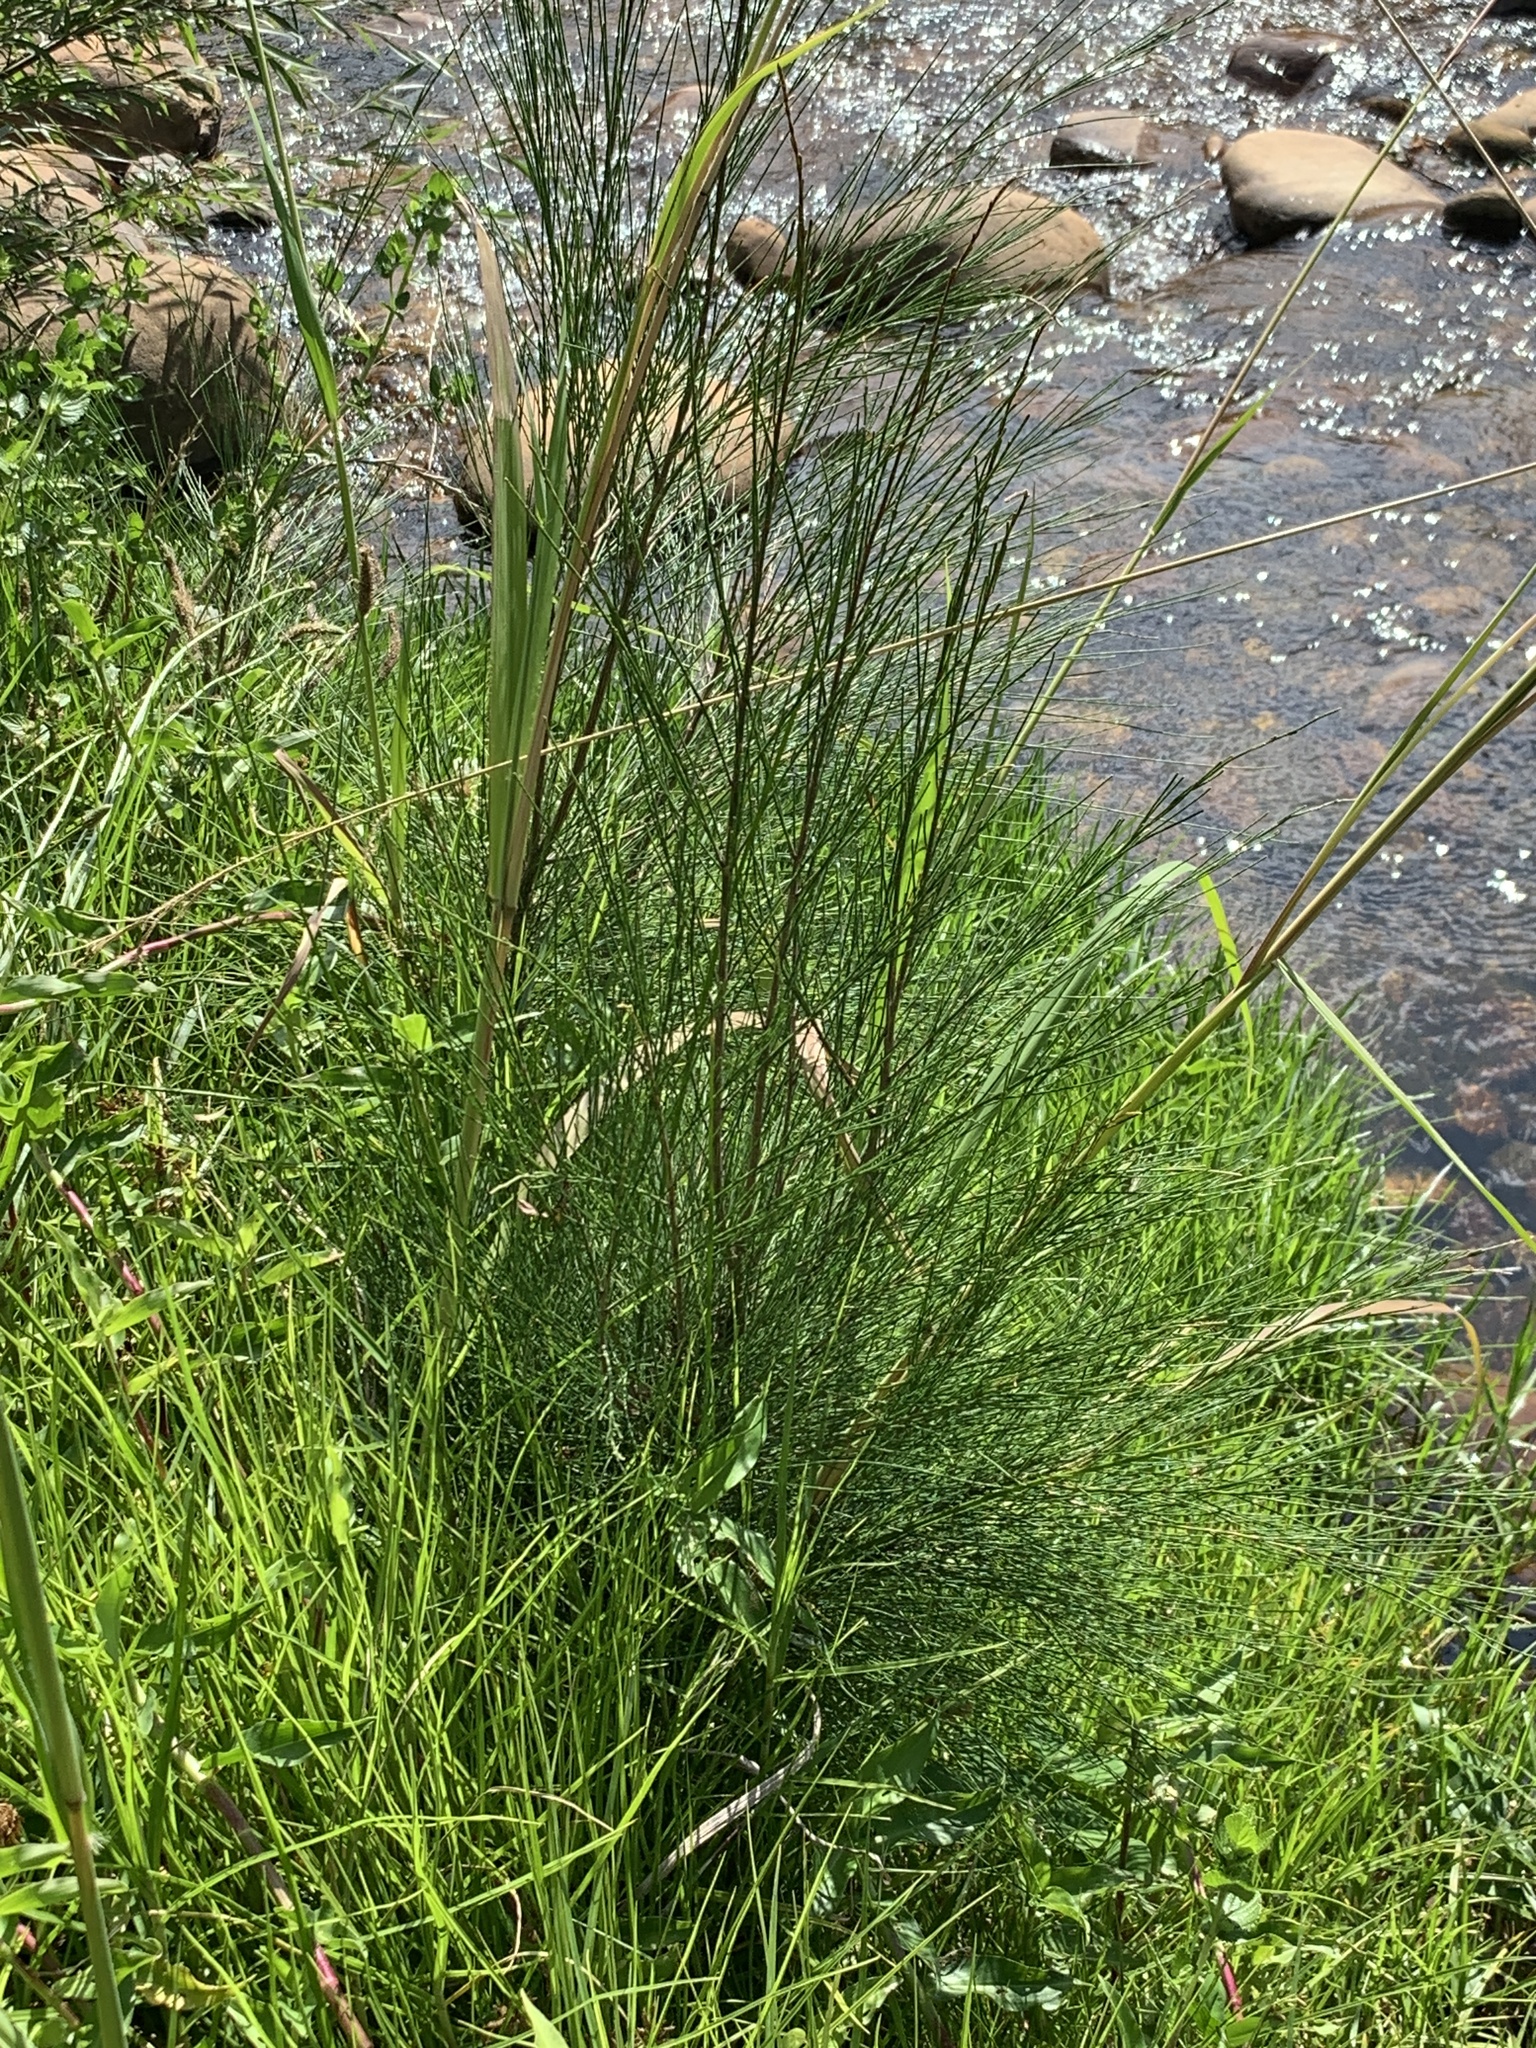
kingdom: Plantae
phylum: Tracheophyta
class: Magnoliopsida
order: Fagales
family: Casuarinaceae
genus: Casuarina
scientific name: Casuarina cunninghamiana
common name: River sheoak
